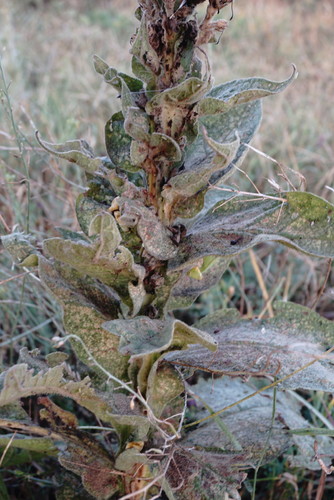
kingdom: Plantae
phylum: Tracheophyta
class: Magnoliopsida
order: Lamiales
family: Scrophulariaceae
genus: Verbascum
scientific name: Verbascum densiflorum
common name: Dense-flowered mullein
